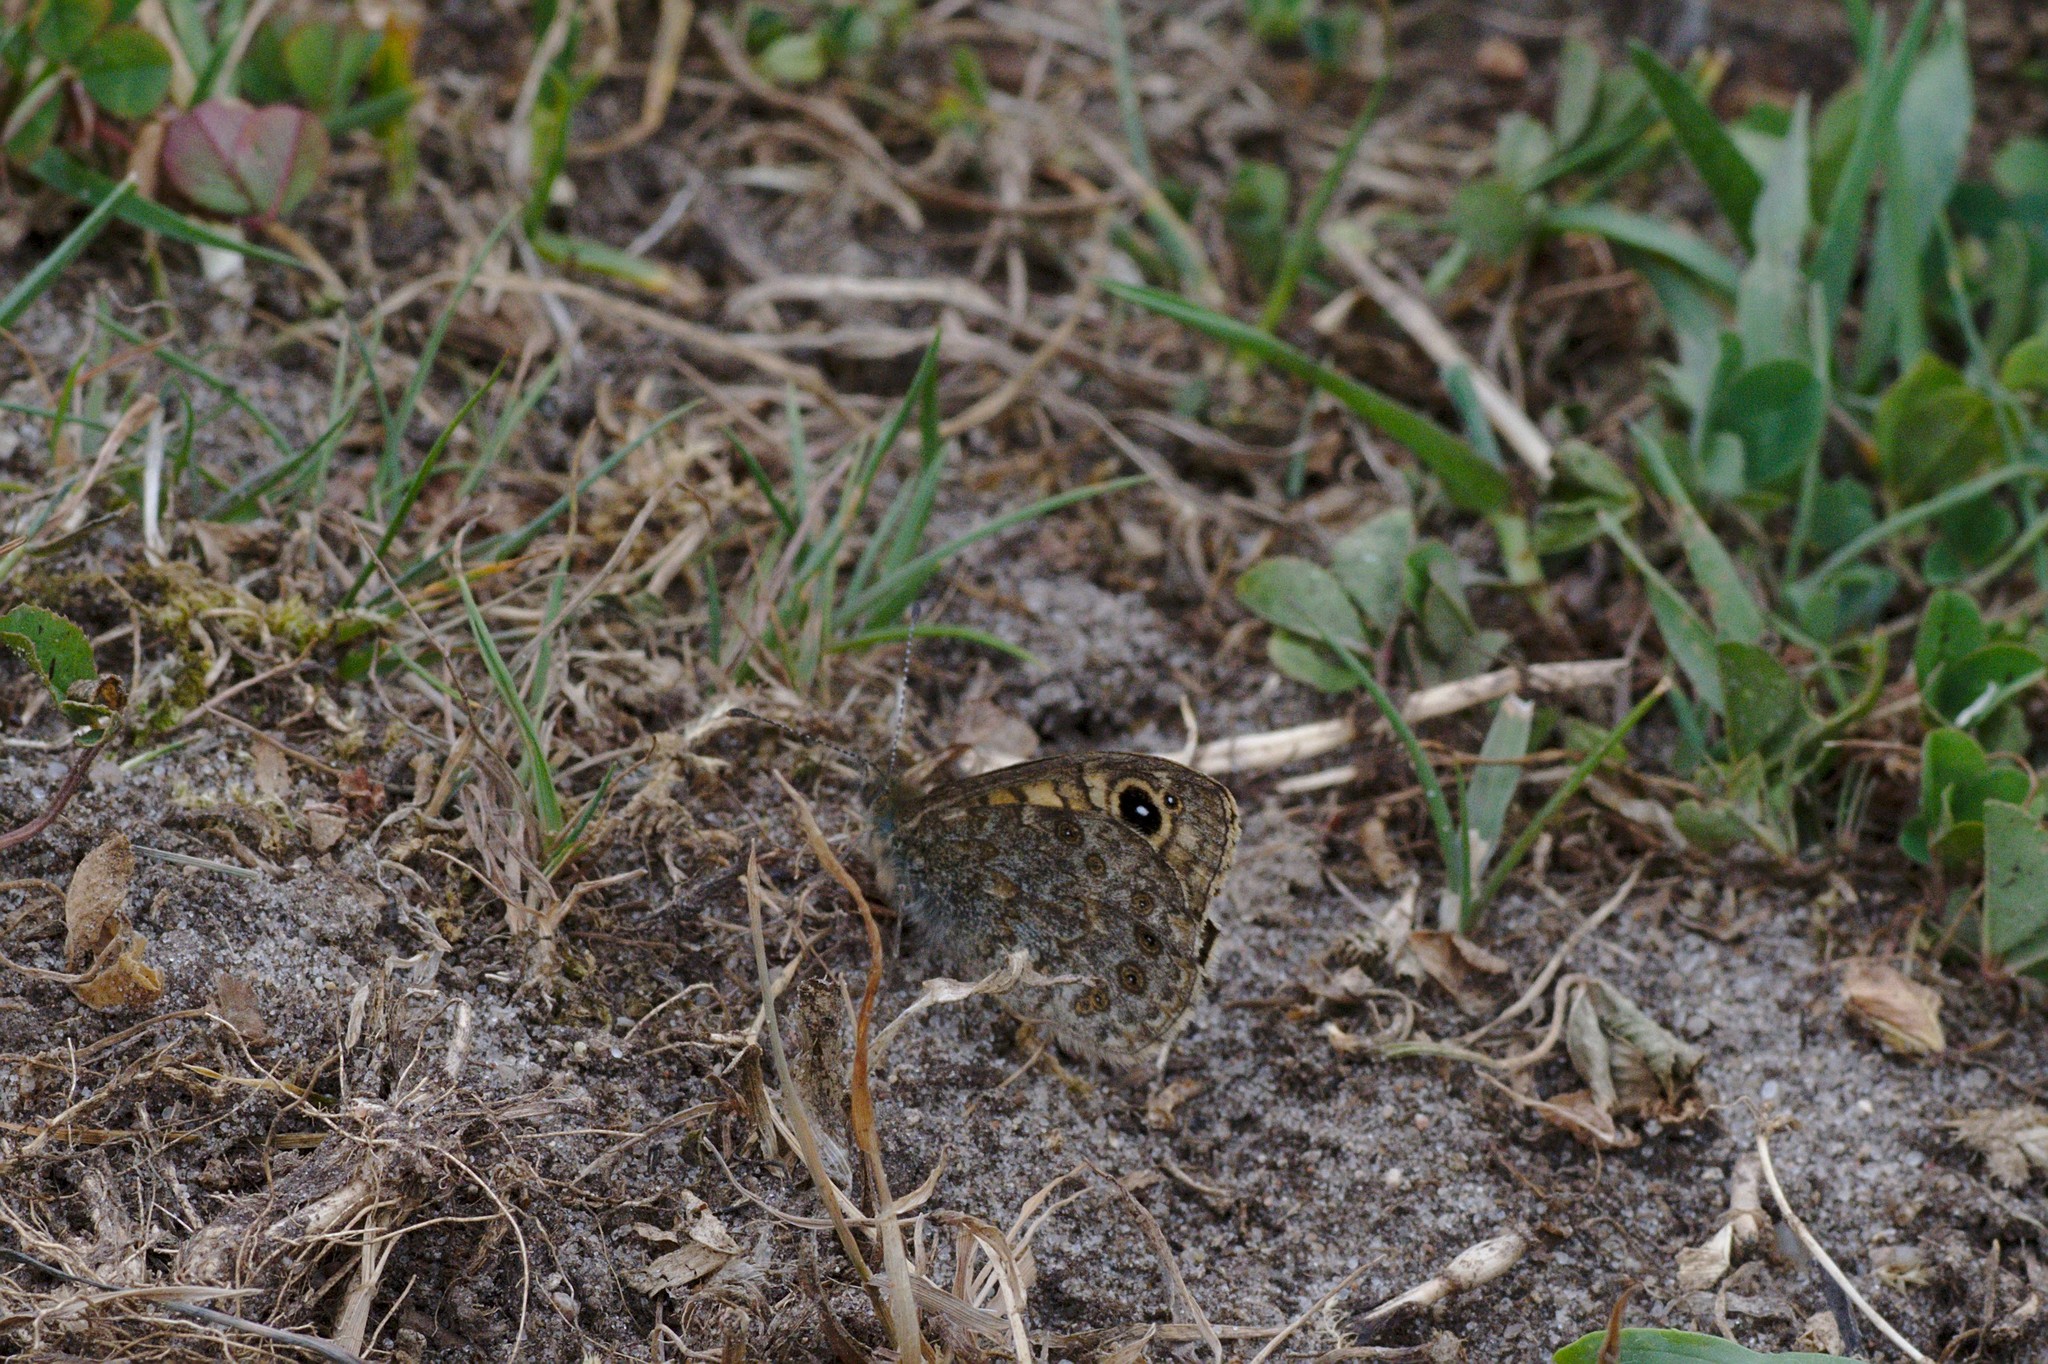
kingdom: Animalia
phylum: Arthropoda
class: Insecta
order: Lepidoptera
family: Nymphalidae
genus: Pararge
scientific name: Pararge Lasiommata megera
